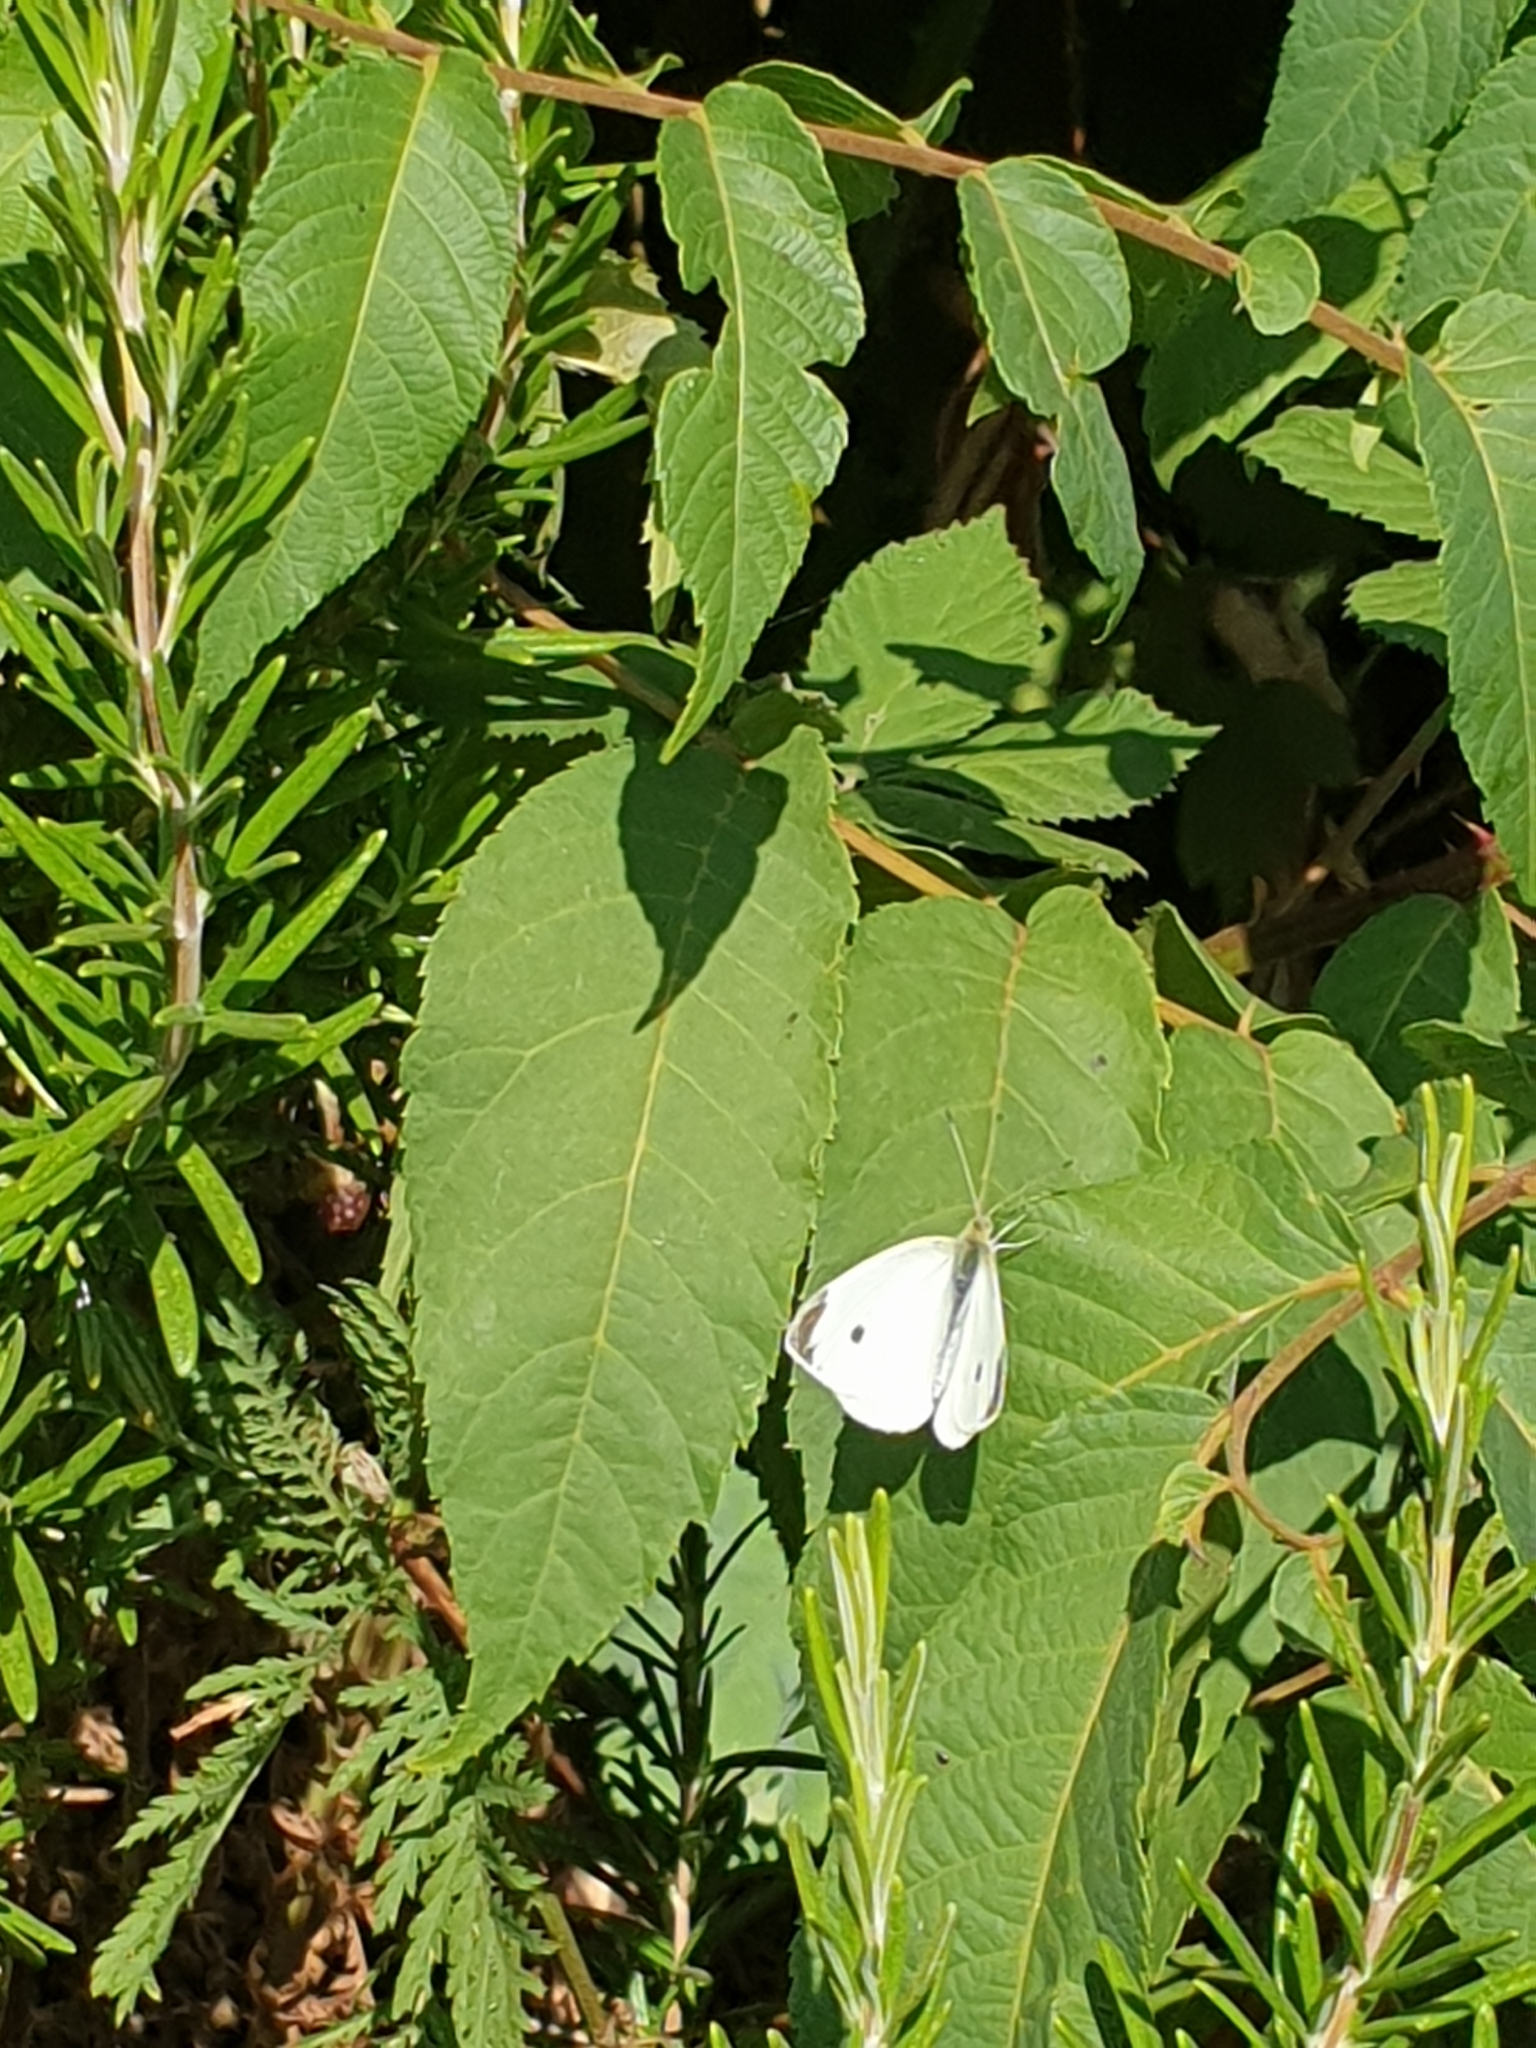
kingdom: Animalia
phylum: Arthropoda
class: Insecta
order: Lepidoptera
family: Pieridae
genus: Pieris
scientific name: Pieris rapae
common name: Small white
